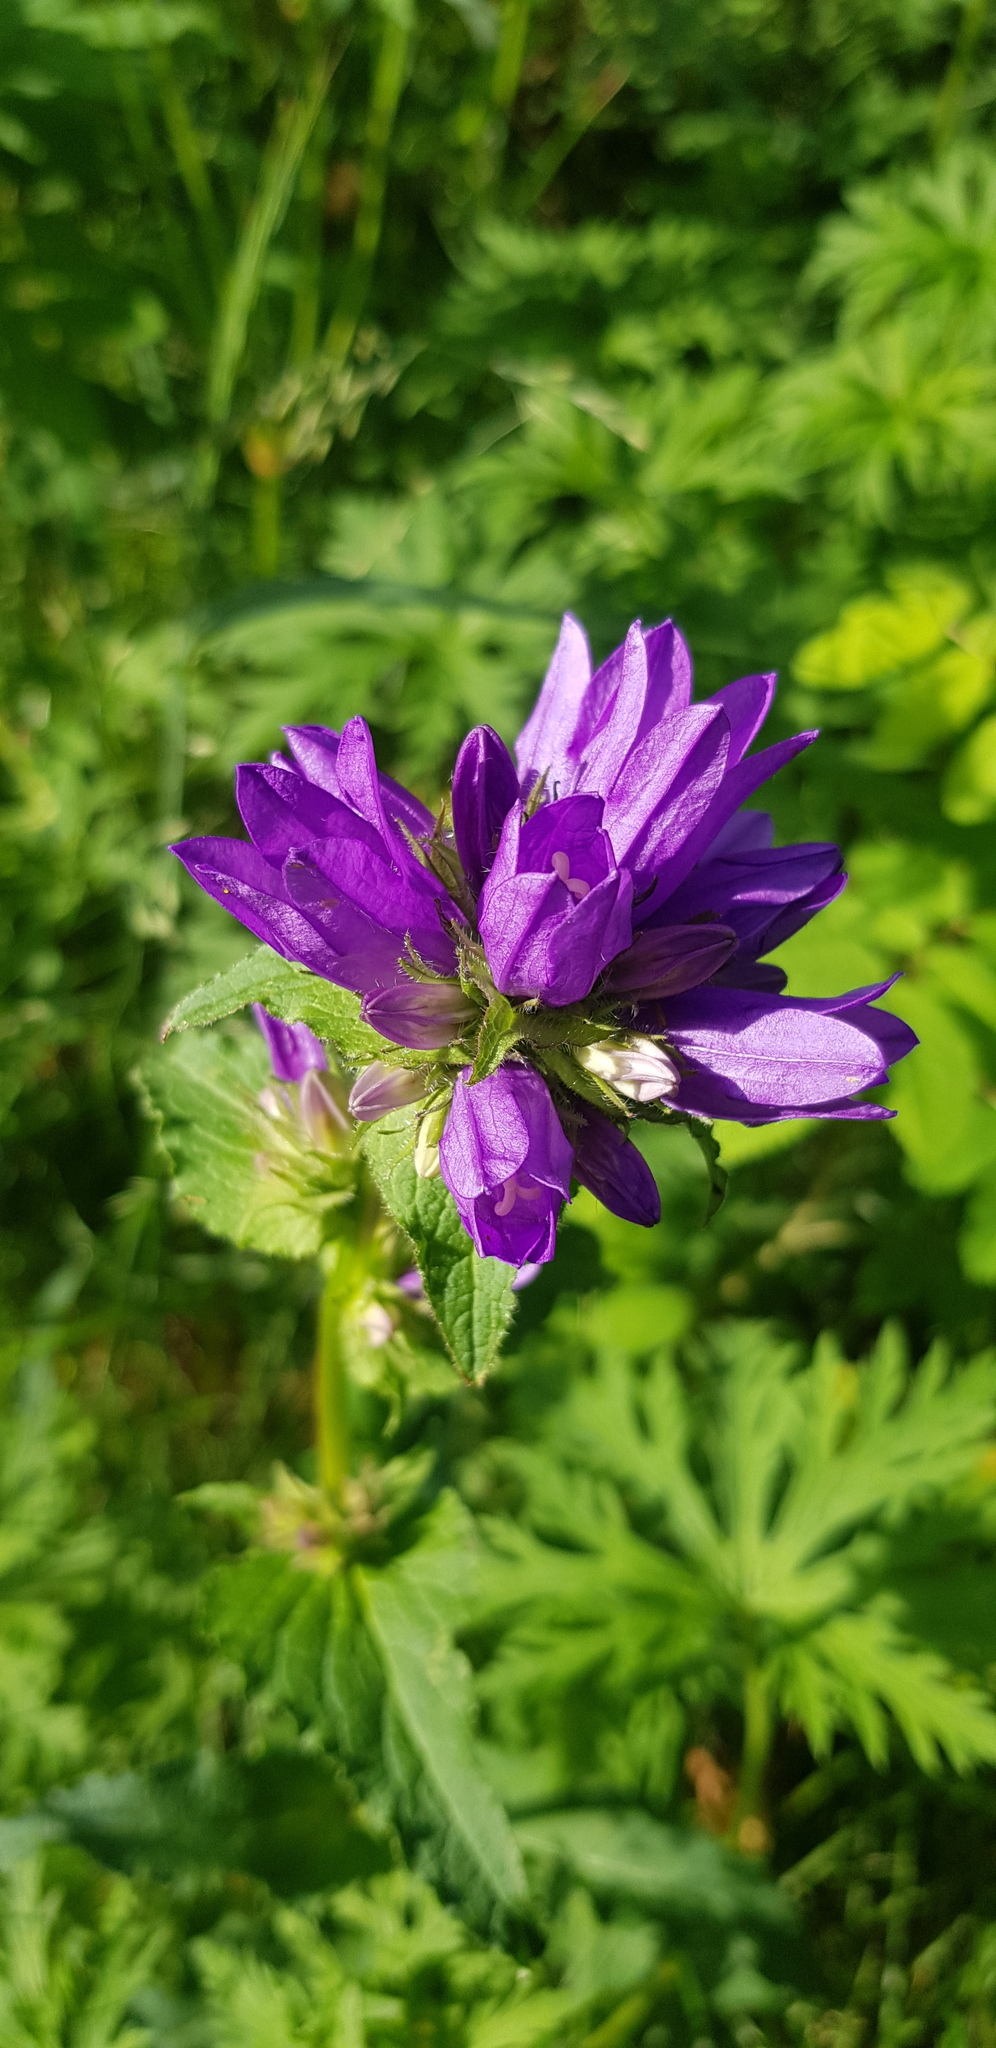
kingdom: Plantae
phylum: Tracheophyta
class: Magnoliopsida
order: Asterales
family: Campanulaceae
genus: Campanula
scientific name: Campanula glomerata
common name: Clustered bellflower
